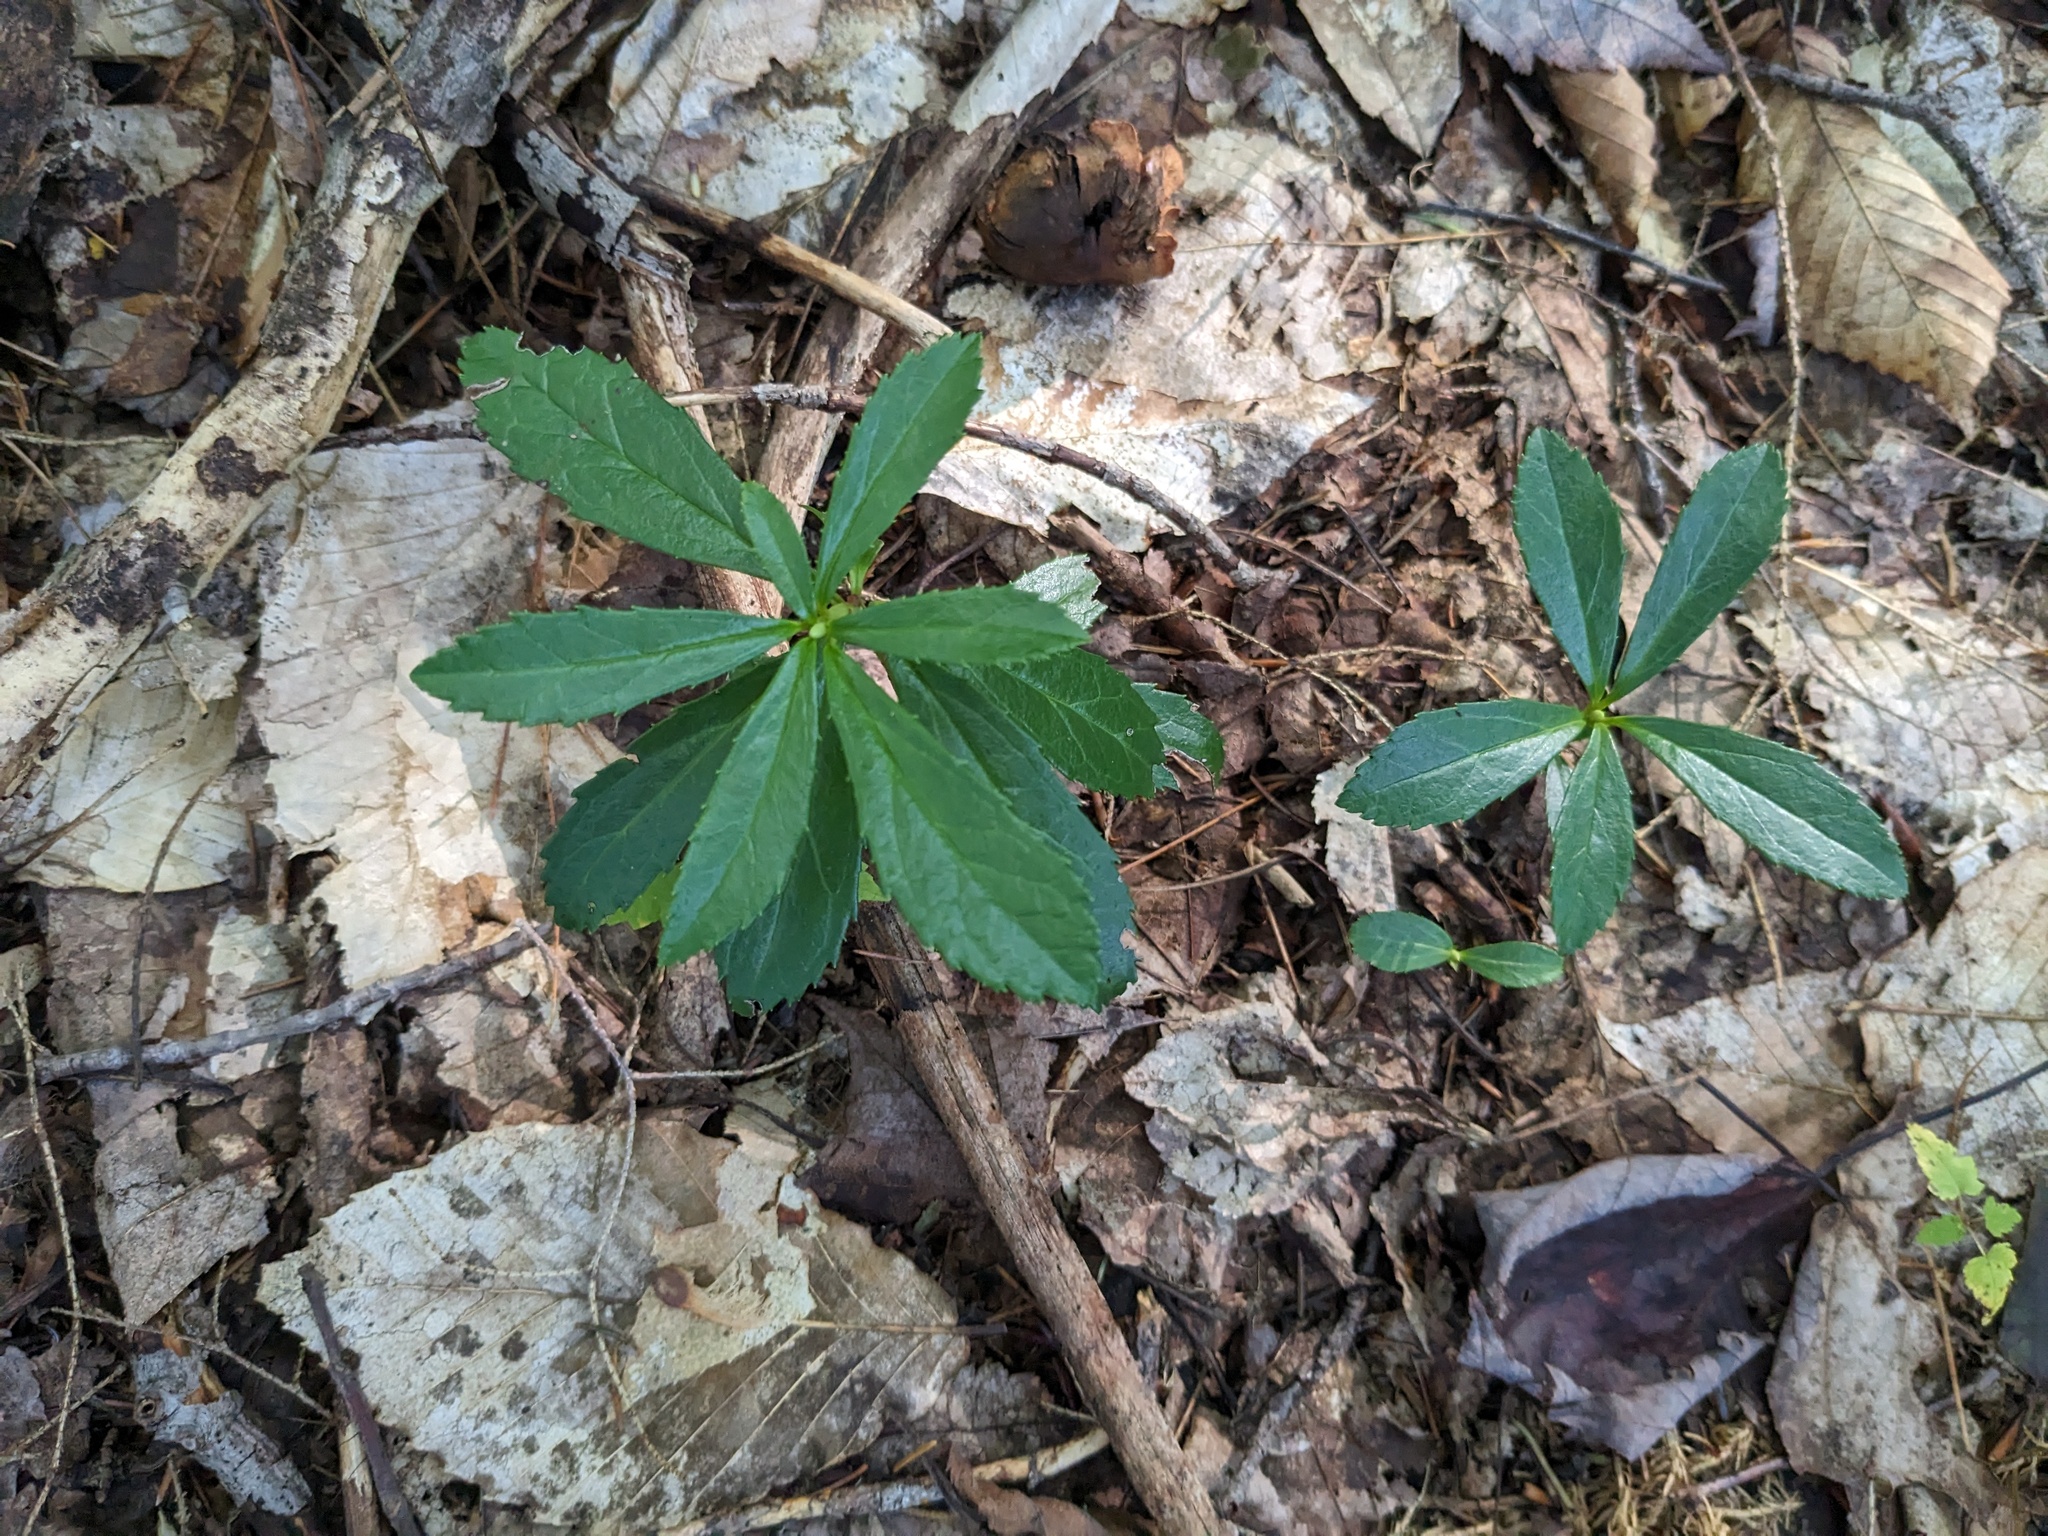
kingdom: Plantae
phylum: Tracheophyta
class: Magnoliopsida
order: Ericales
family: Ericaceae
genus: Chimaphila
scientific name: Chimaphila umbellata
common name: Pipsissewa
